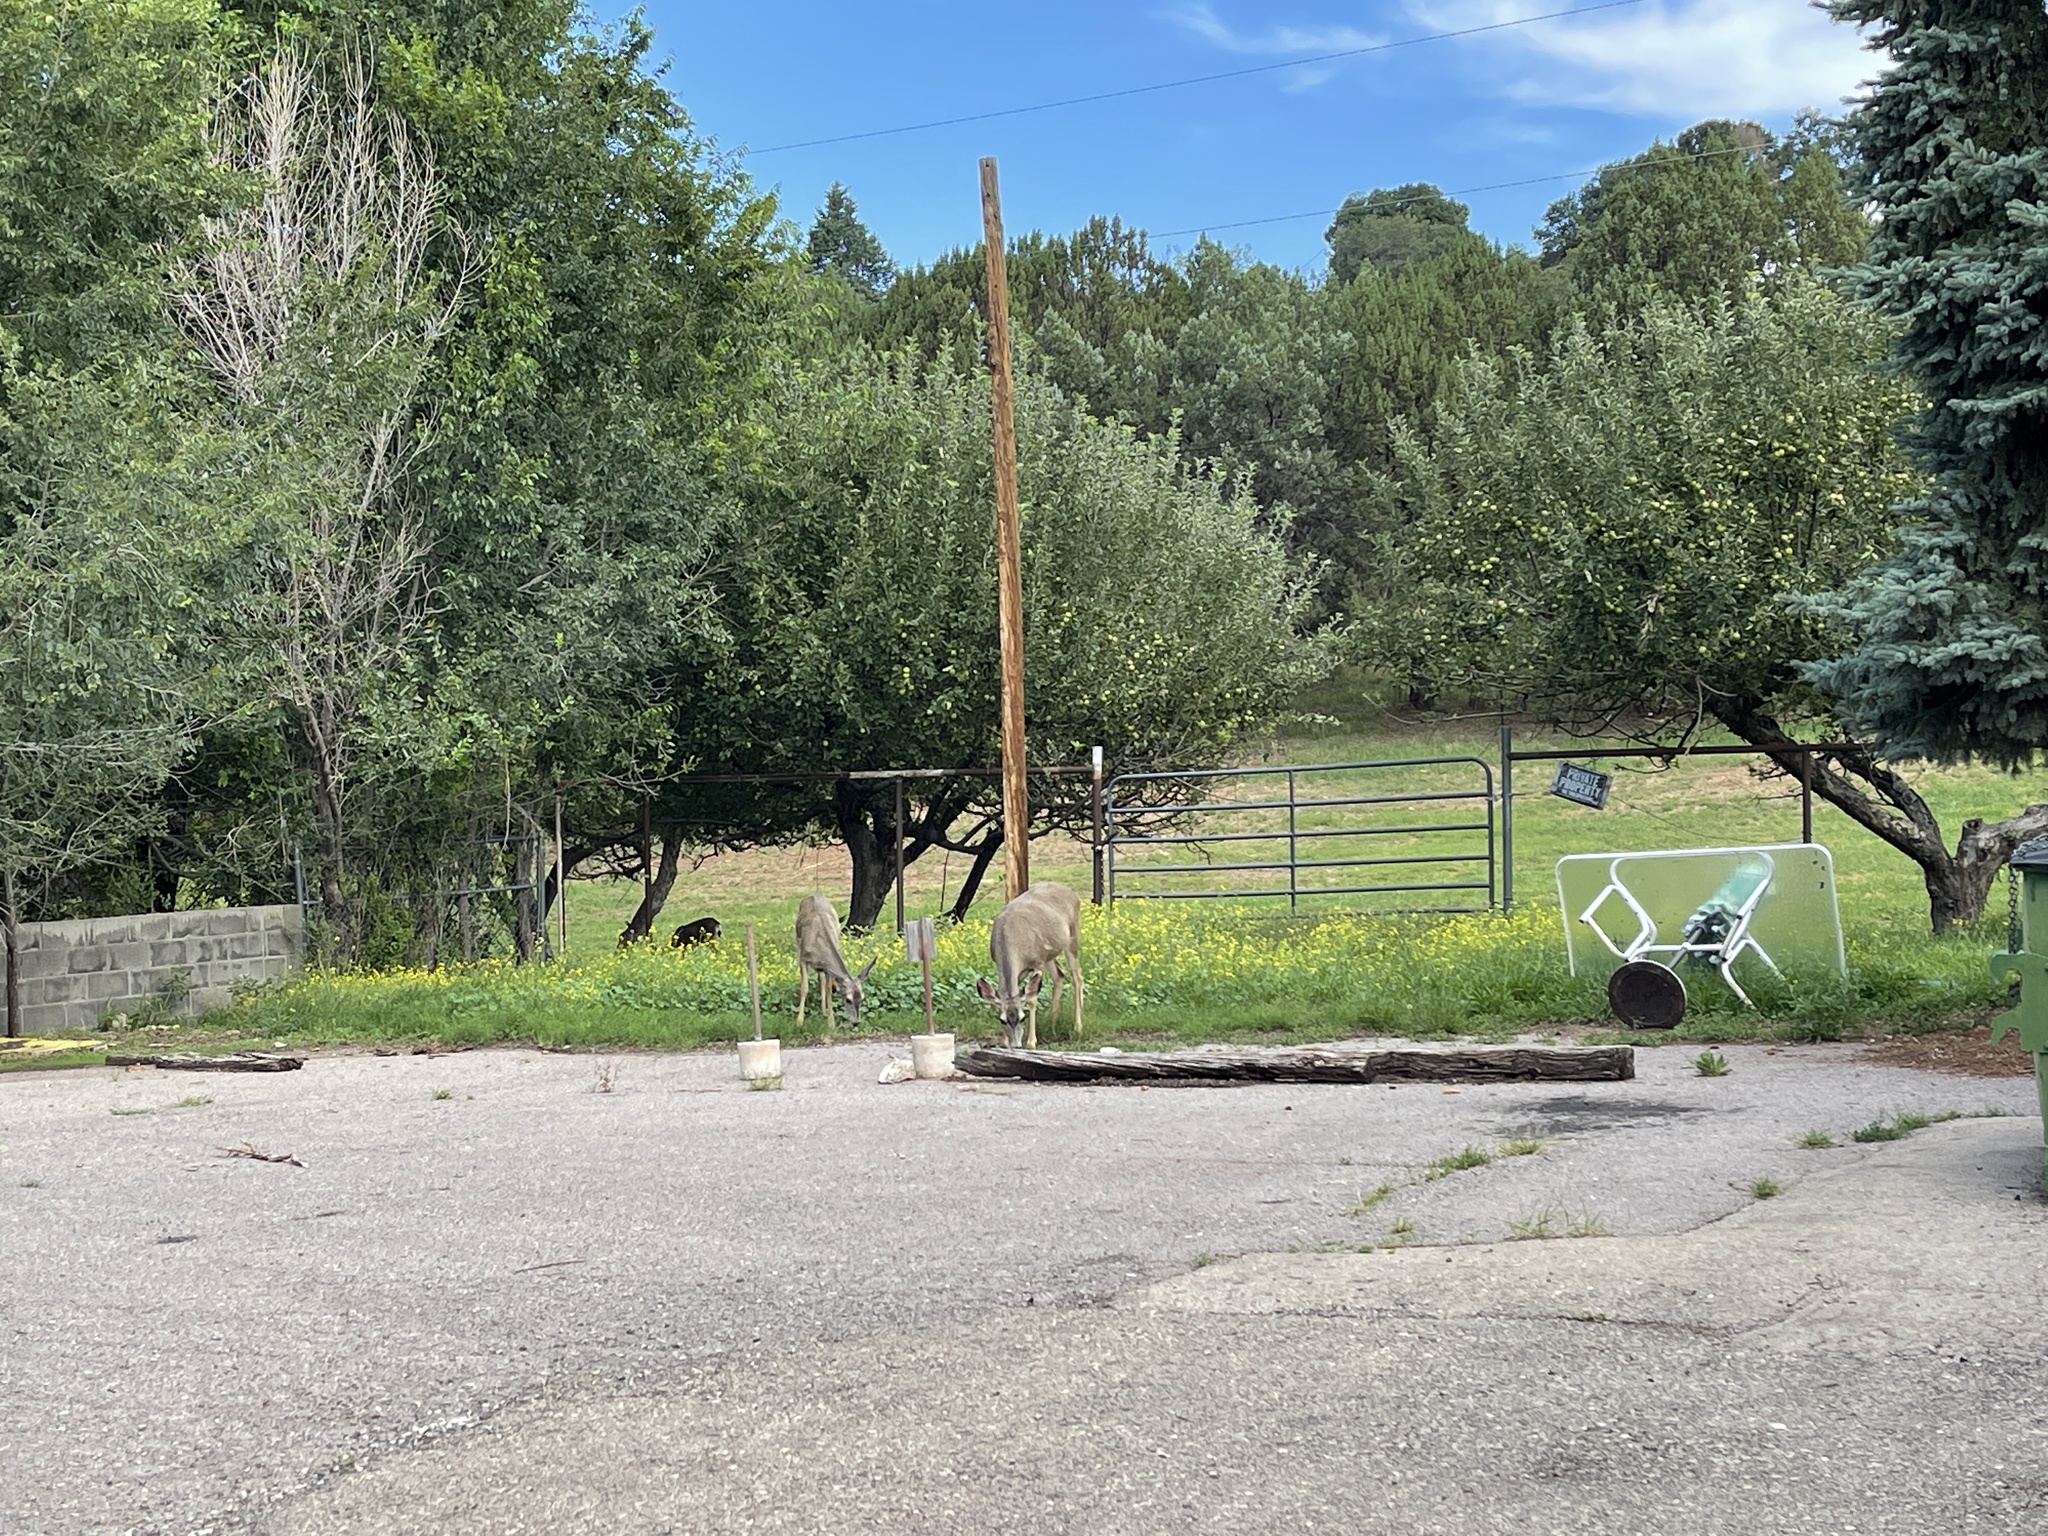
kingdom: Animalia
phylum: Chordata
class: Mammalia
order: Artiodactyla
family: Cervidae
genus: Odocoileus
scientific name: Odocoileus hemionus
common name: Mule deer
